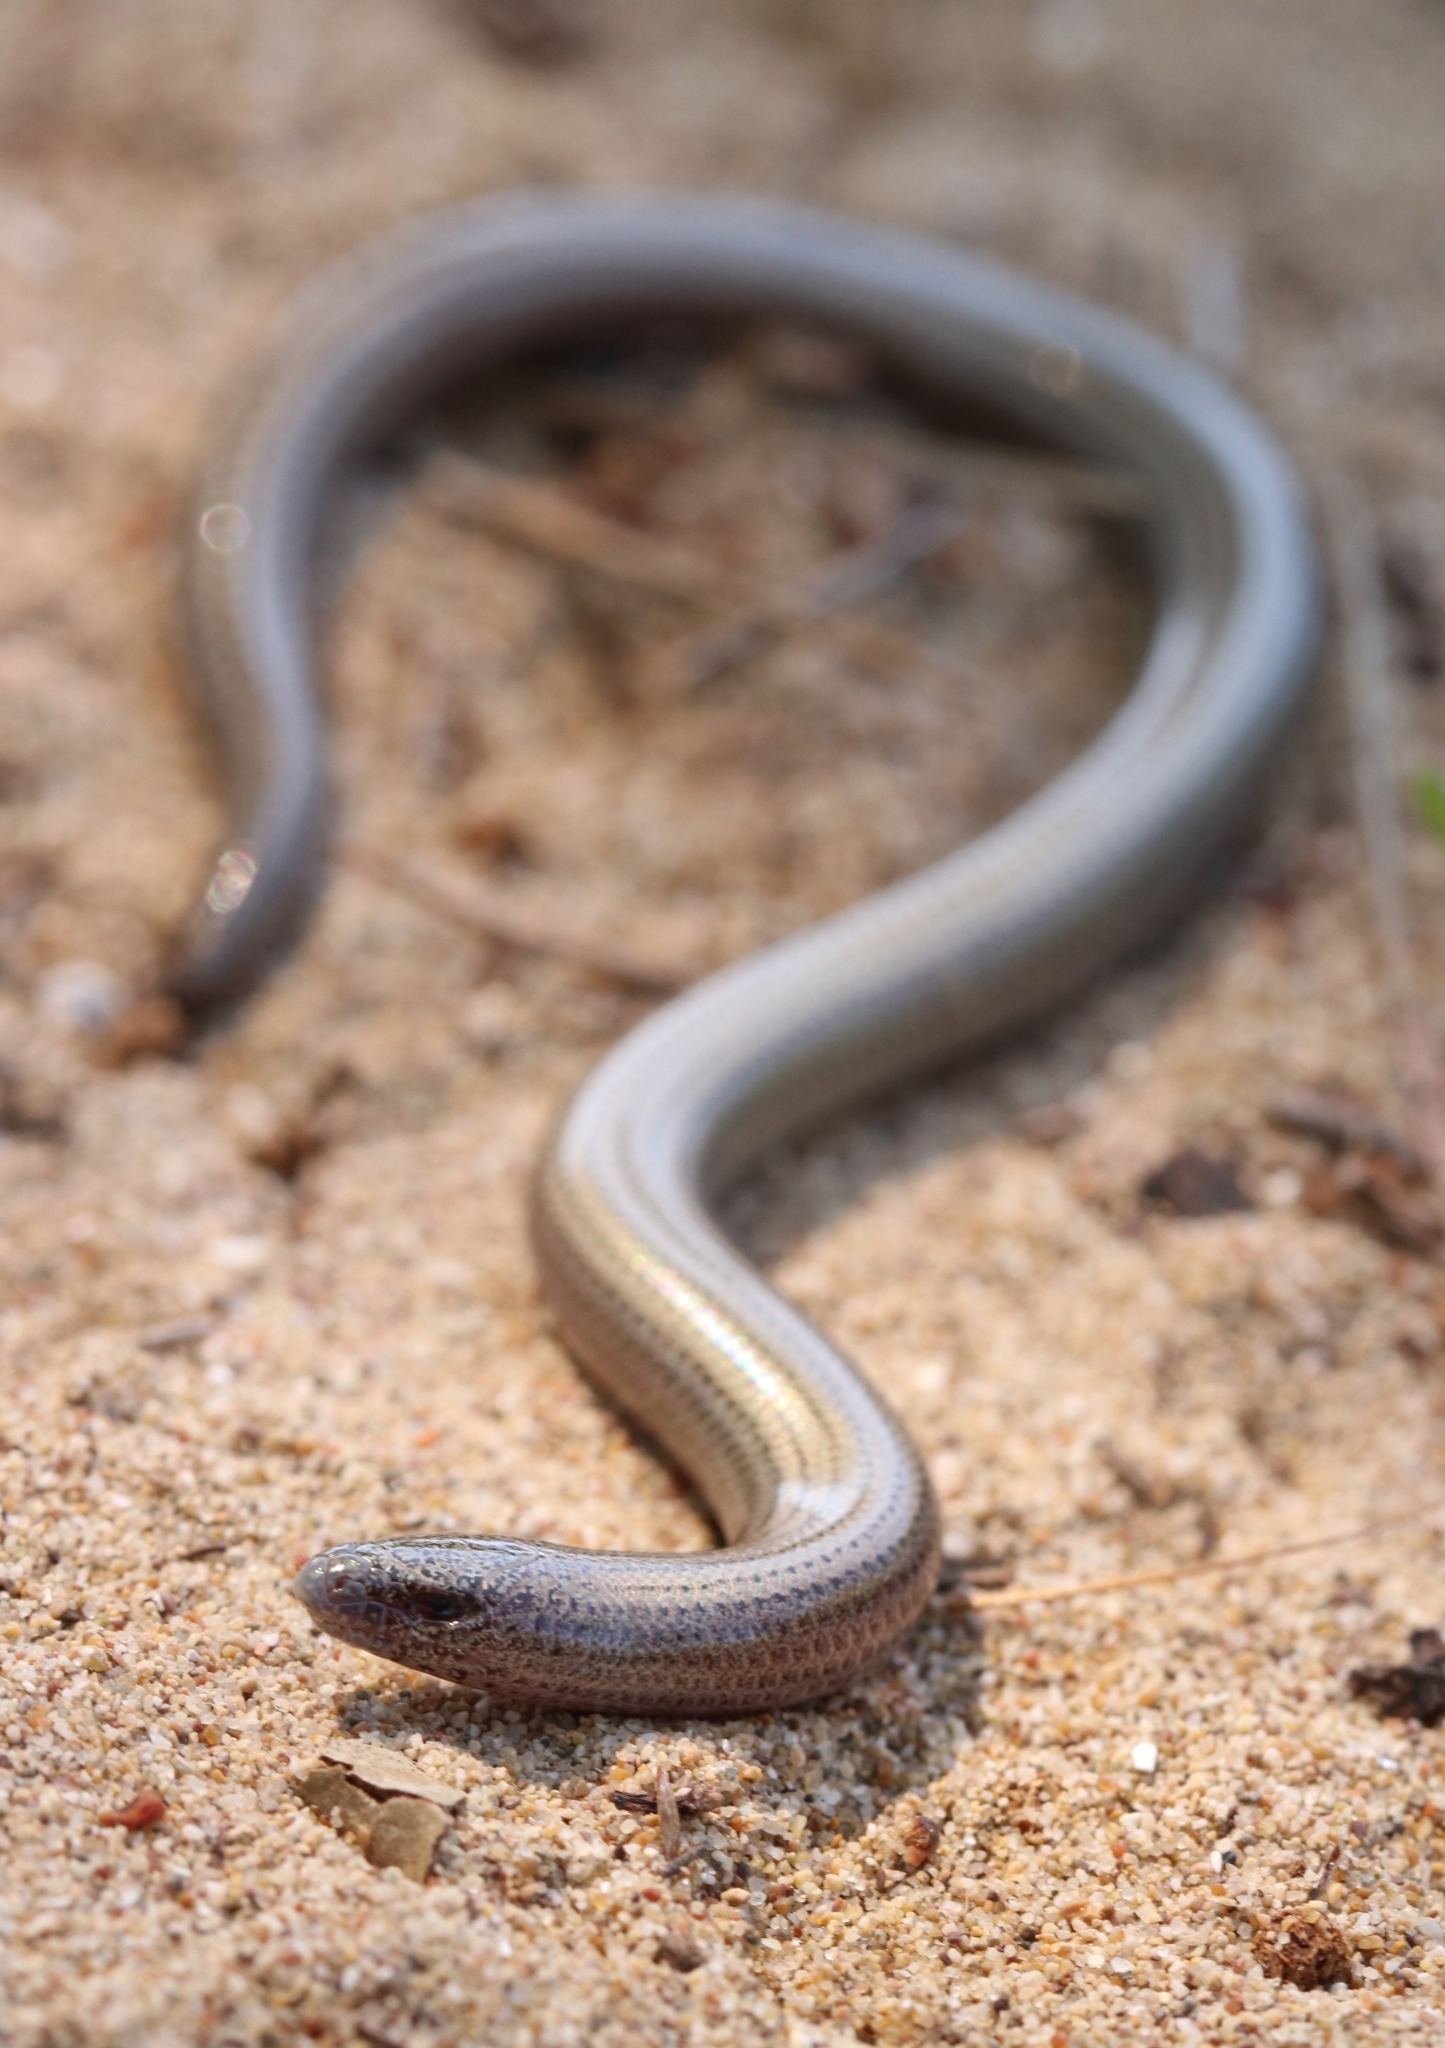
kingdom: Animalia
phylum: Chordata
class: Squamata
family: Scincidae
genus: Ophiomorus
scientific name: Ophiomorus punctatissimus
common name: Greek snake skink
